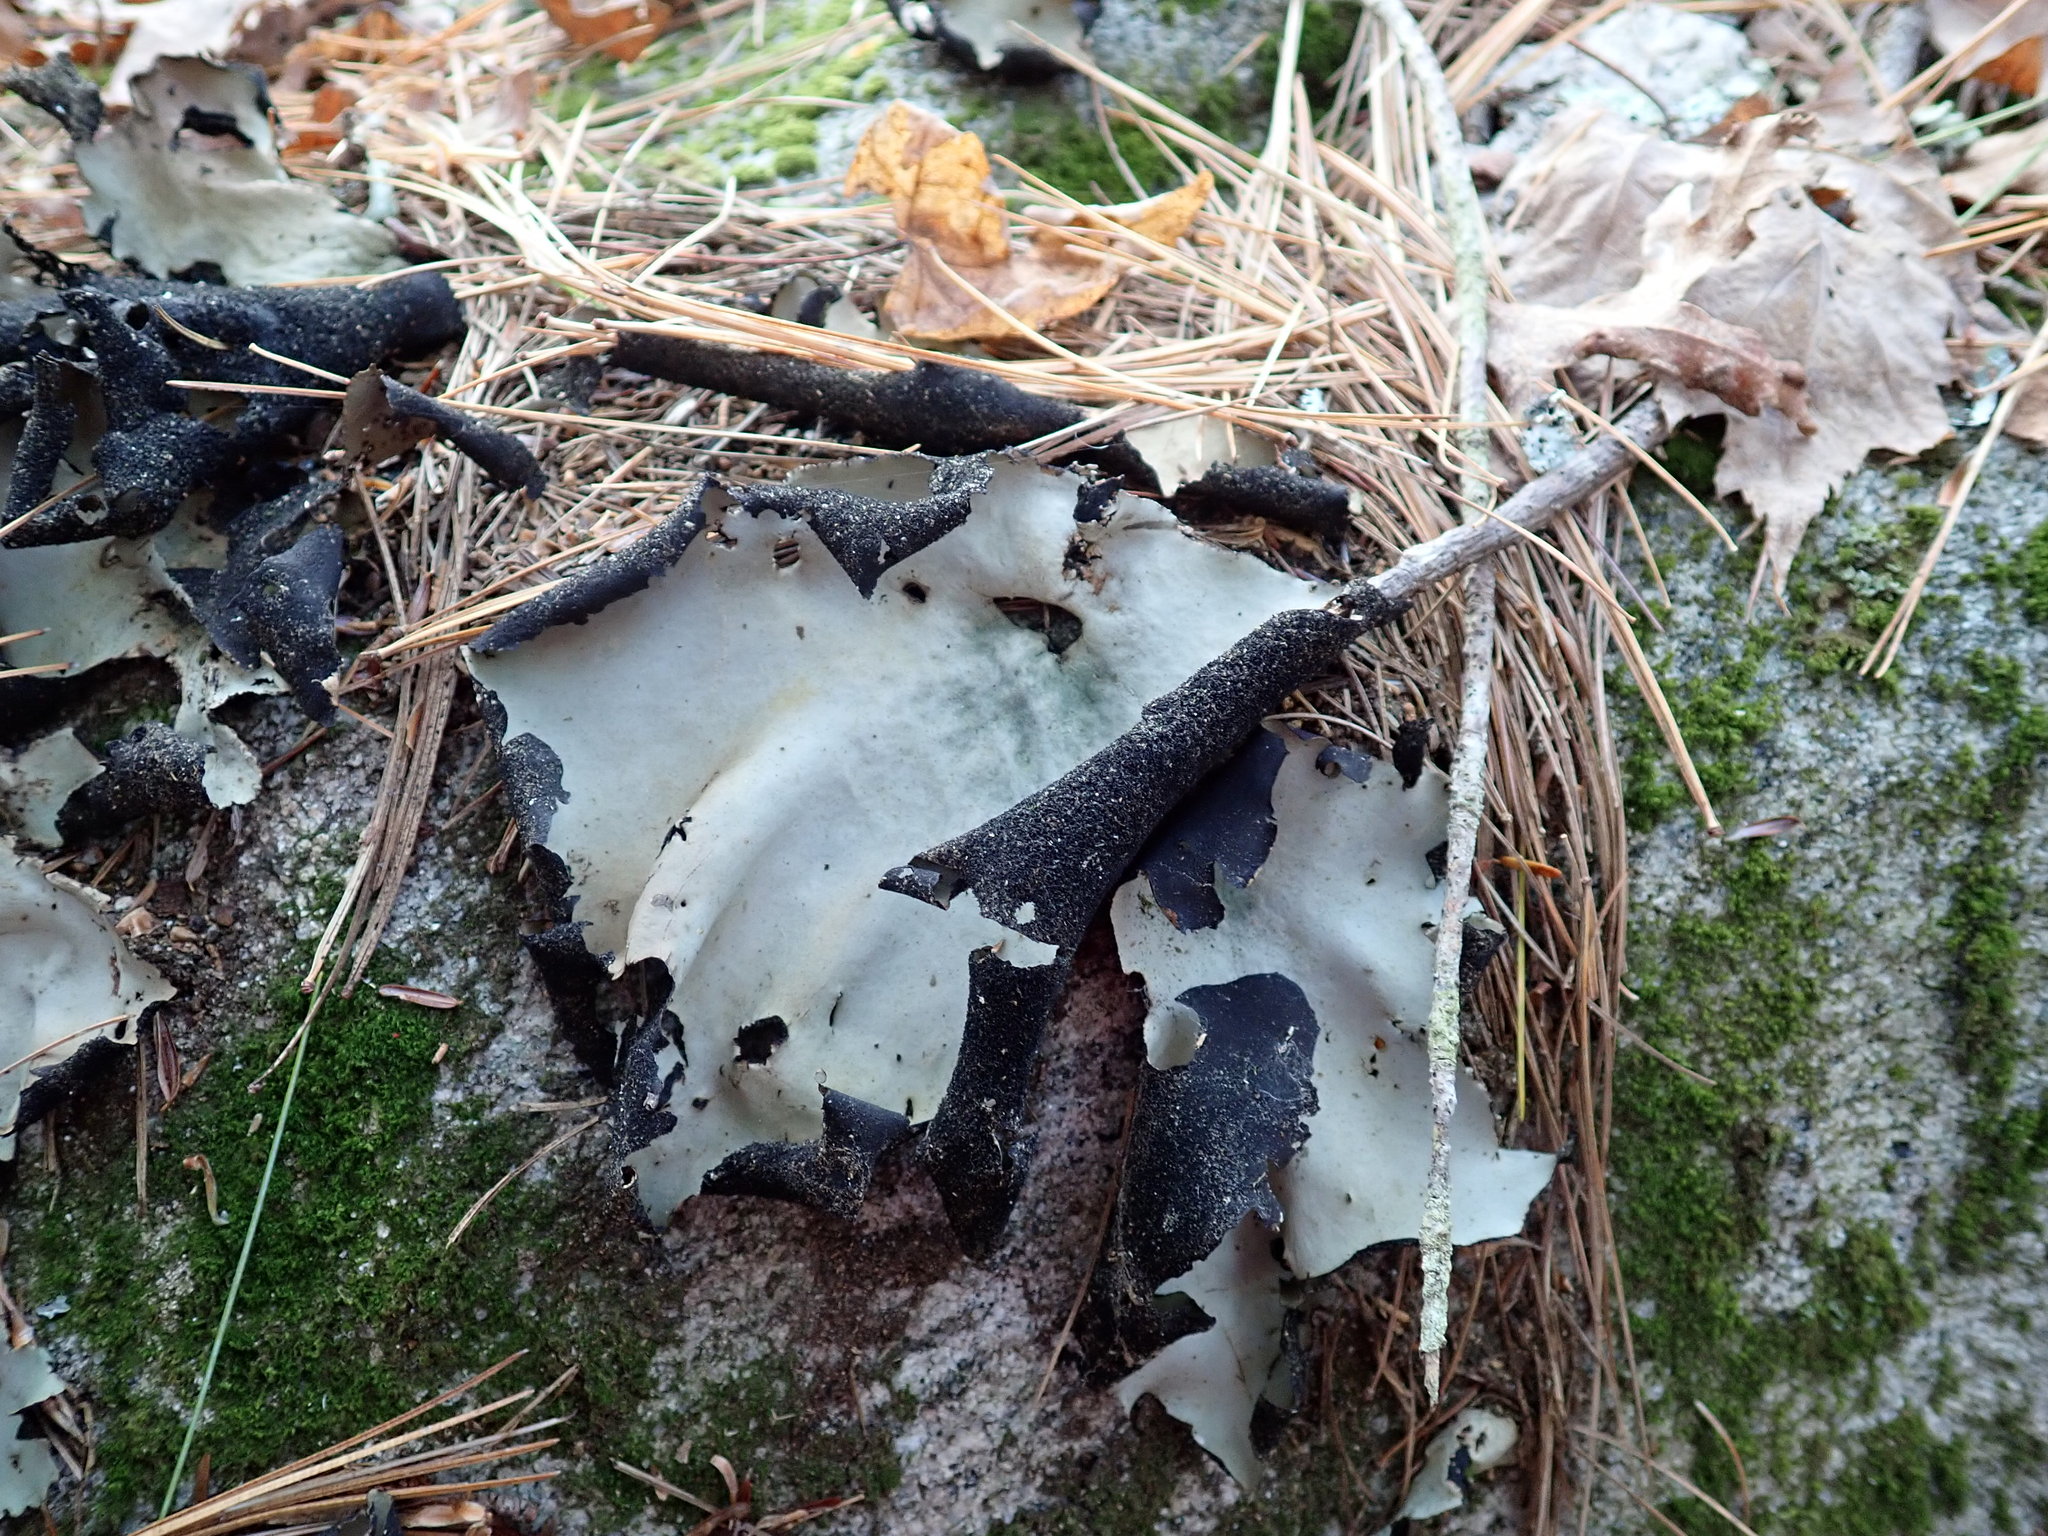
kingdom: Fungi
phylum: Ascomycota
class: Lecanoromycetes
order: Umbilicariales
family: Umbilicariaceae
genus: Umbilicaria
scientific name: Umbilicaria mammulata
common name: Smooth rock tripe
